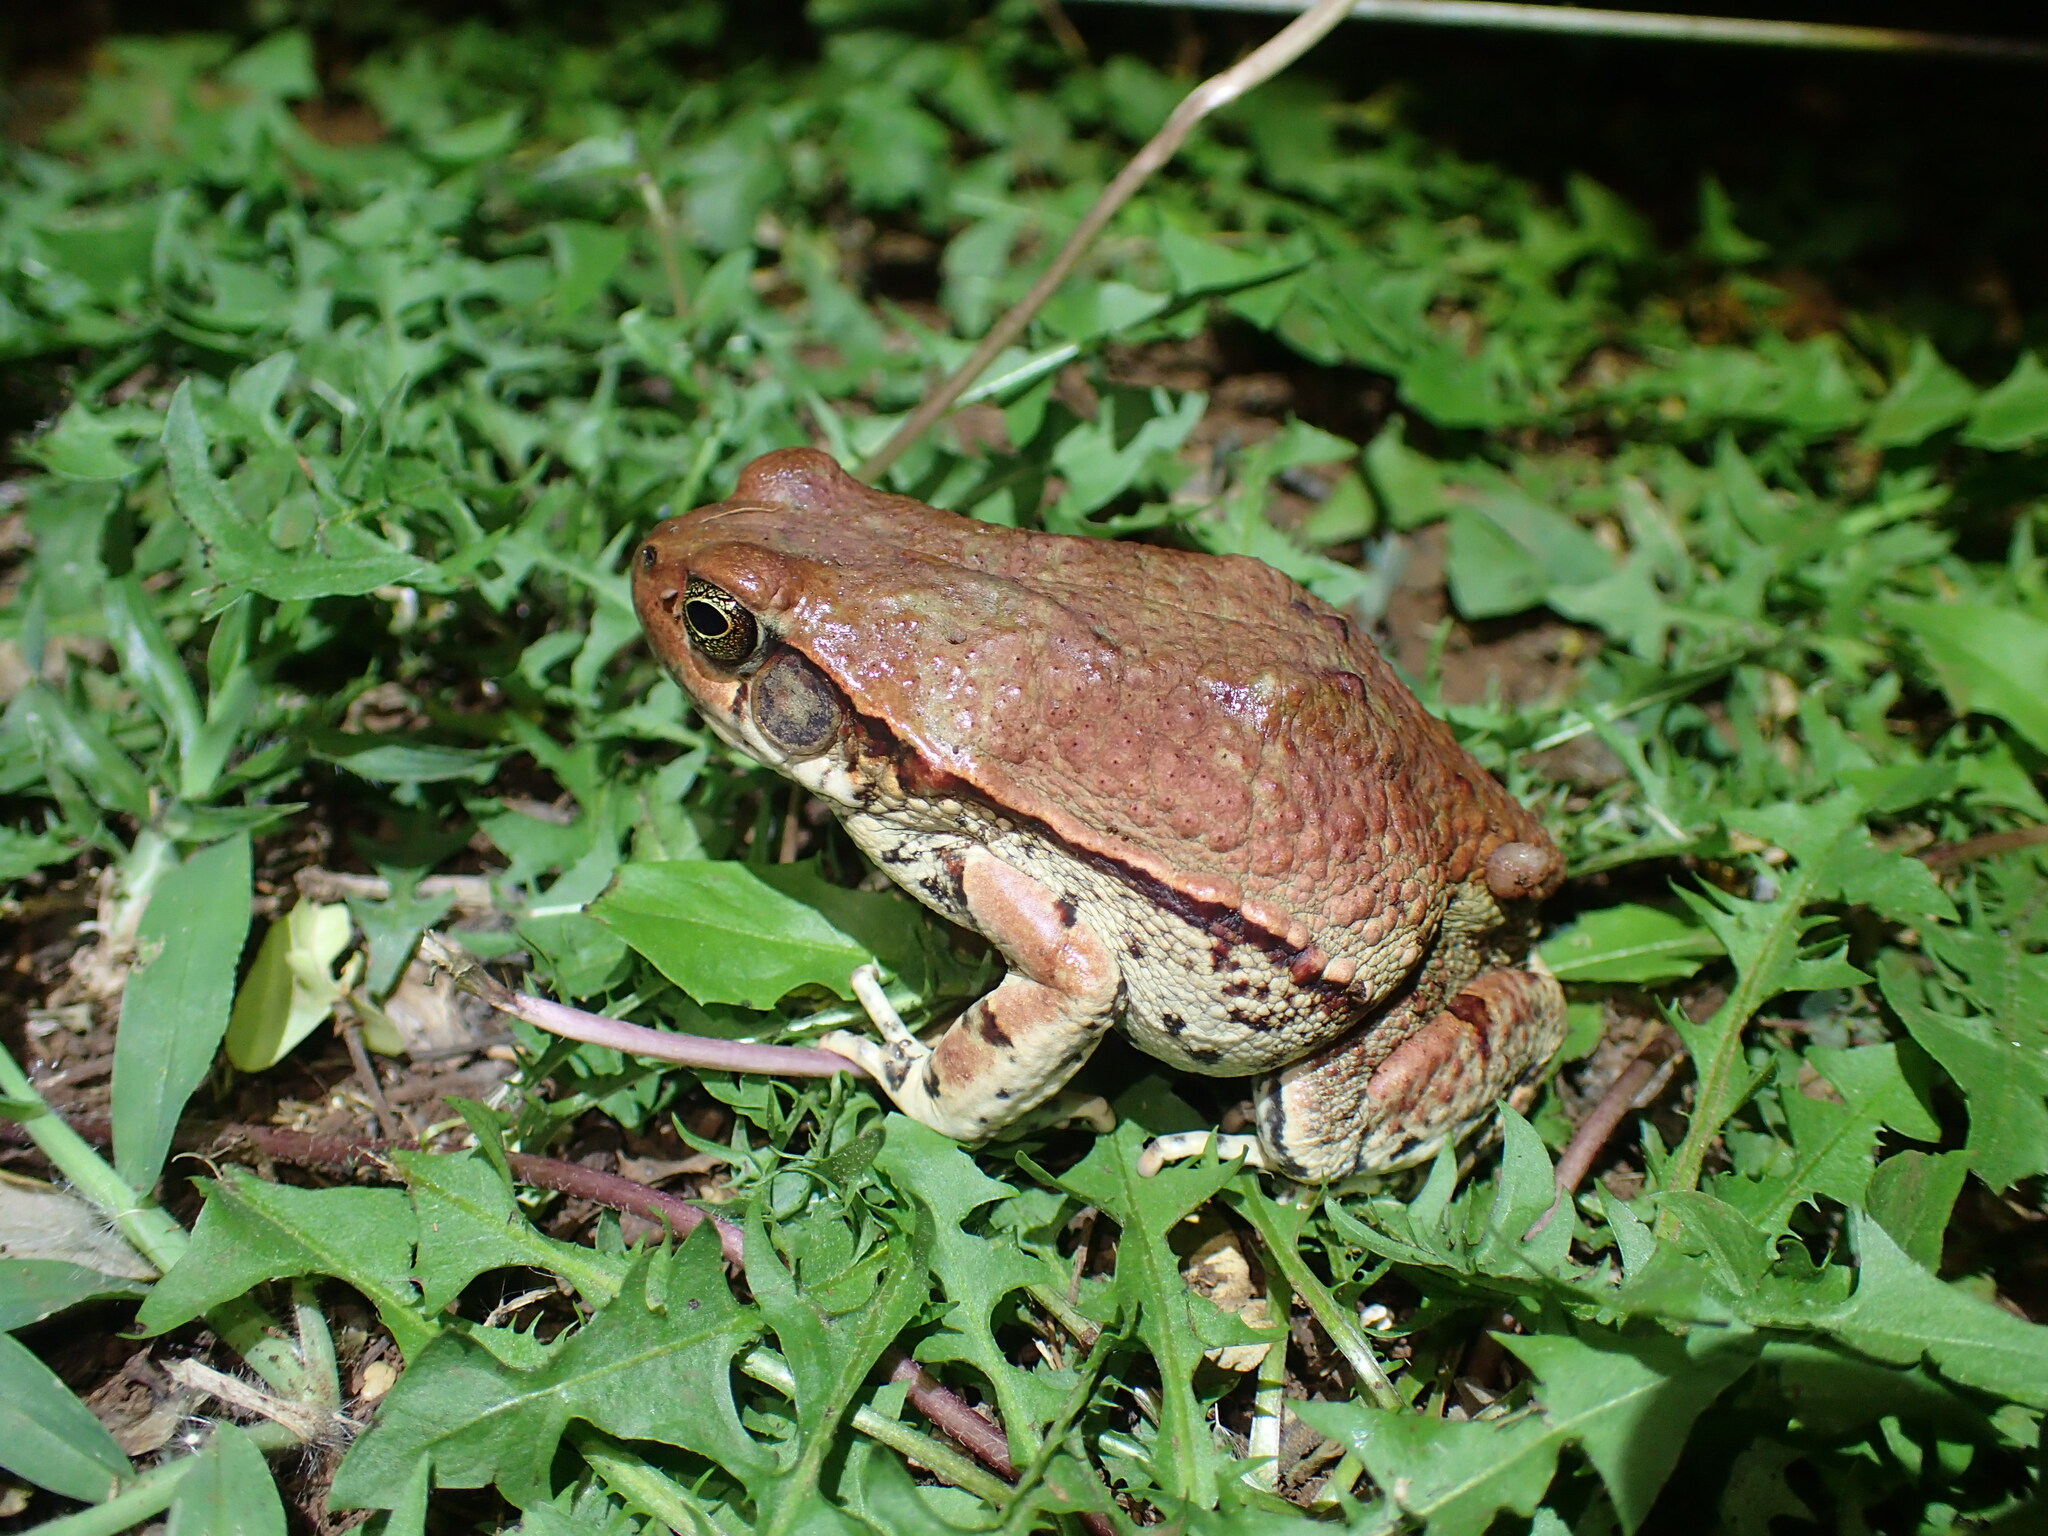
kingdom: Animalia
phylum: Chordata
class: Amphibia
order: Anura
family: Bufonidae
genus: Schismaderma
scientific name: Schismaderma carens
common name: African split-skin toad
